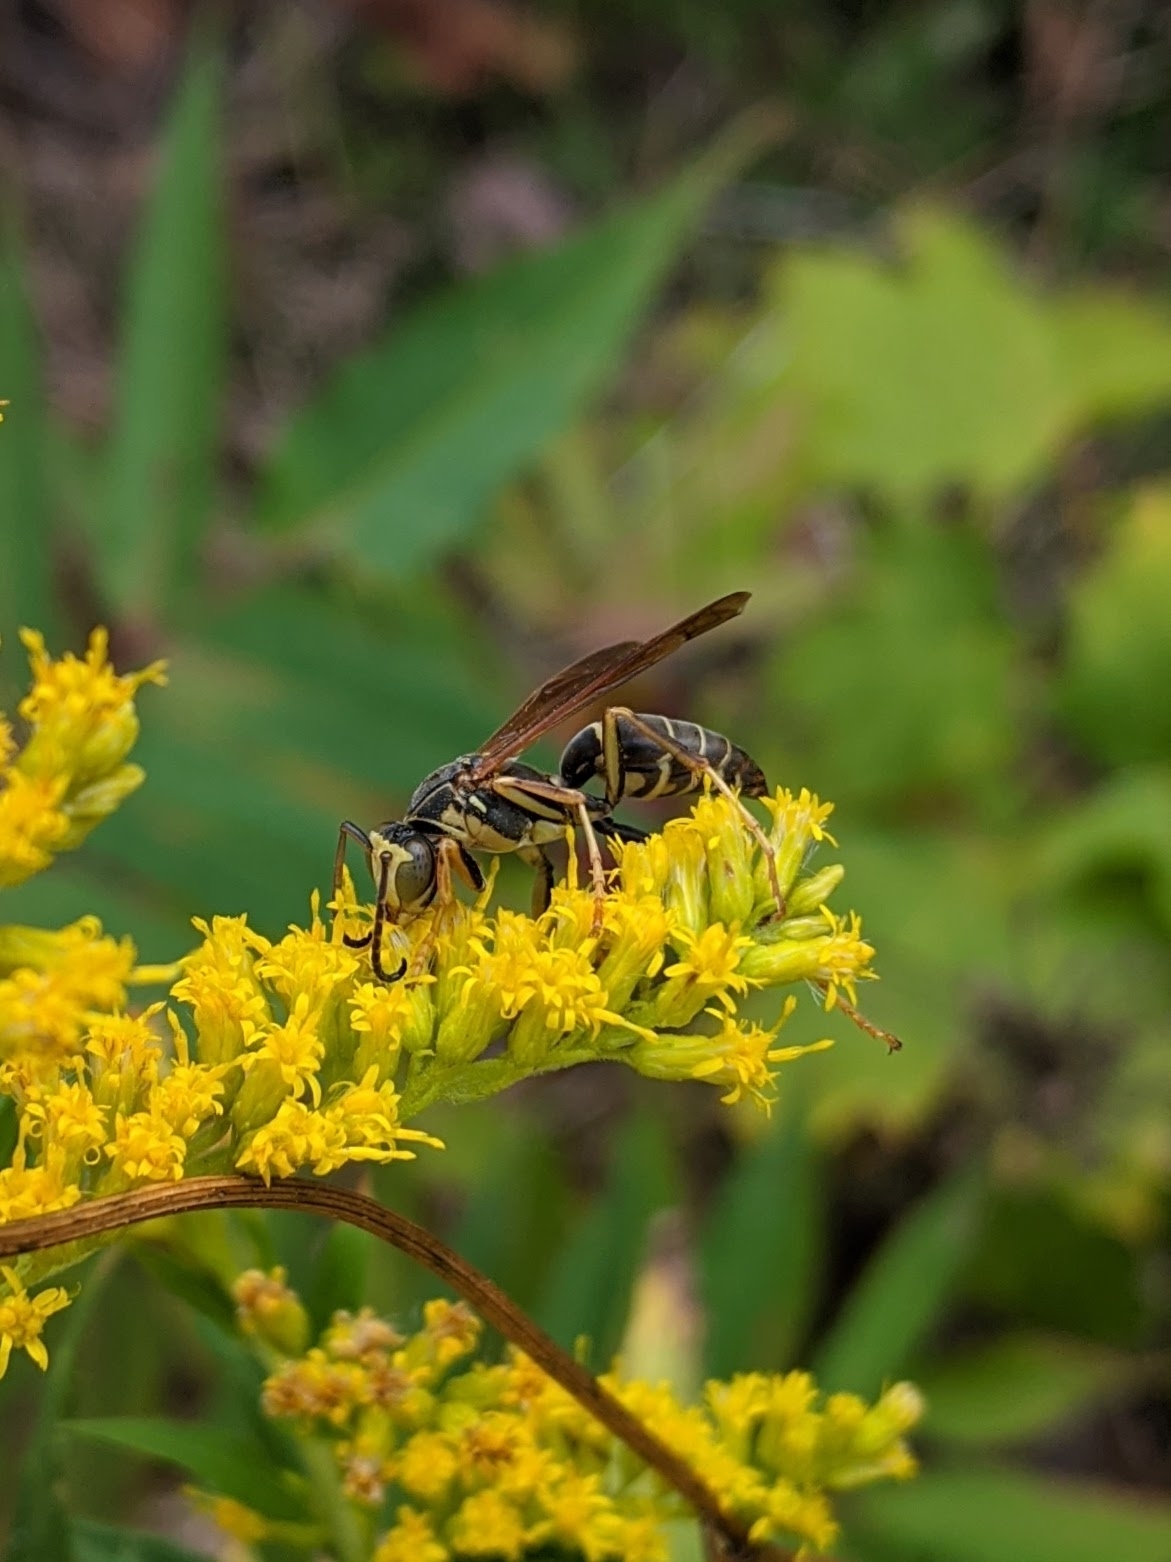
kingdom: Animalia
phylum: Arthropoda
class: Insecta
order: Hymenoptera
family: Eumenidae
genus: Polistes
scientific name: Polistes fuscatus
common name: Dark paper wasp
